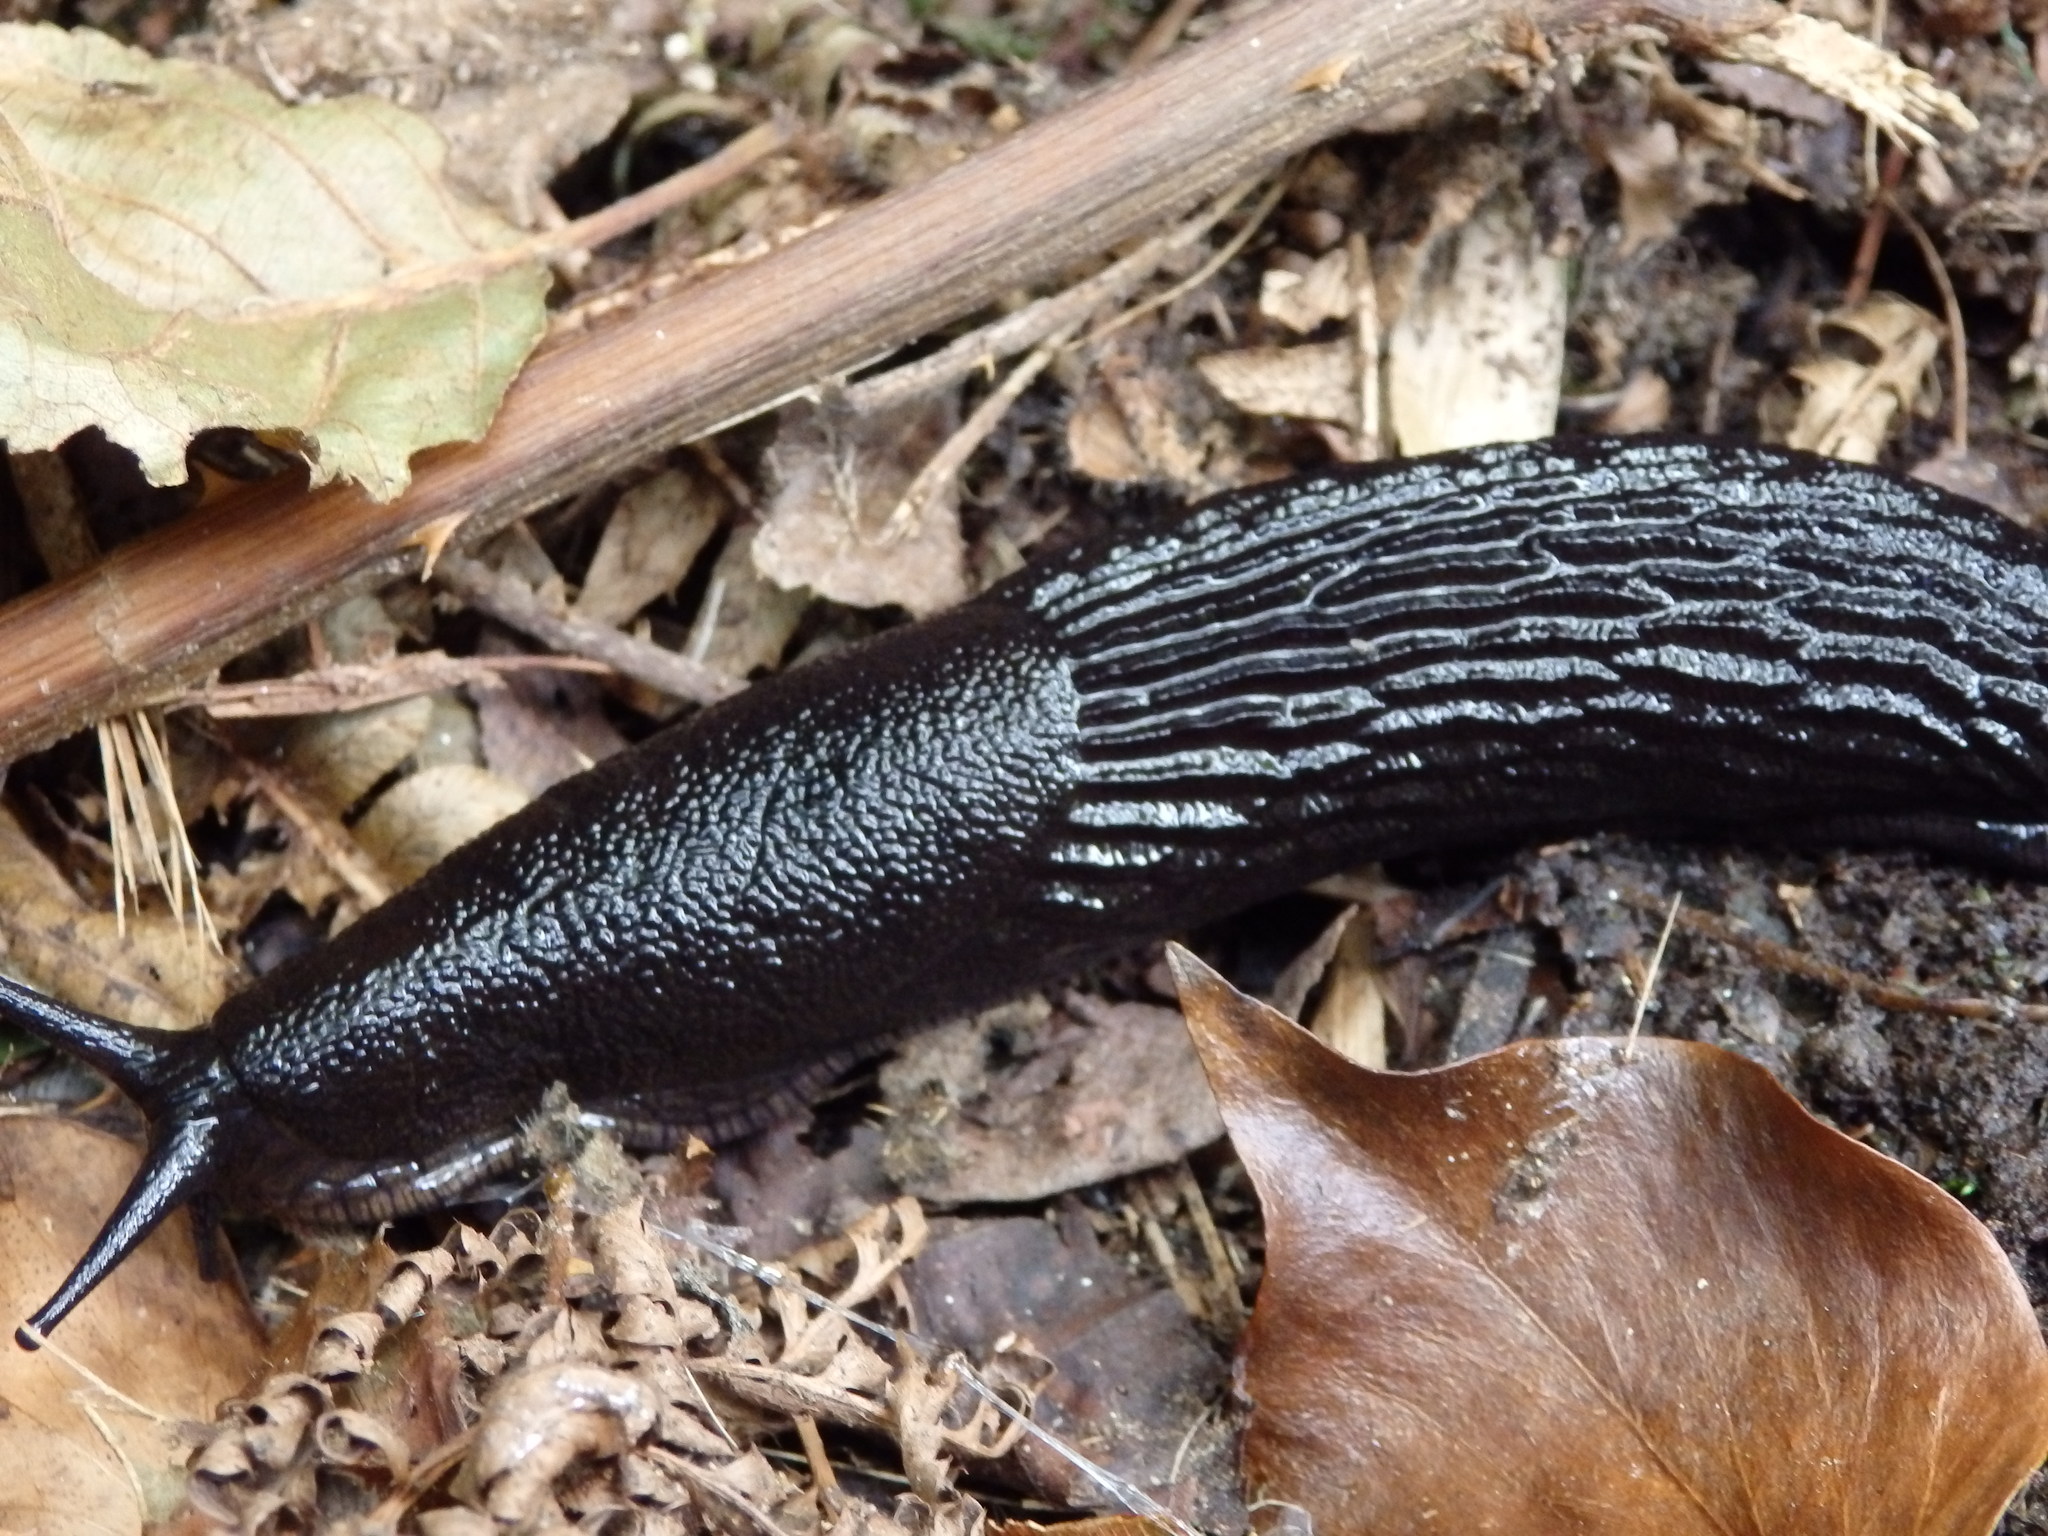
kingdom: Animalia
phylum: Mollusca
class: Gastropoda
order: Stylommatophora
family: Arionidae
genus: Arion
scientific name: Arion ater
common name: Black arion
